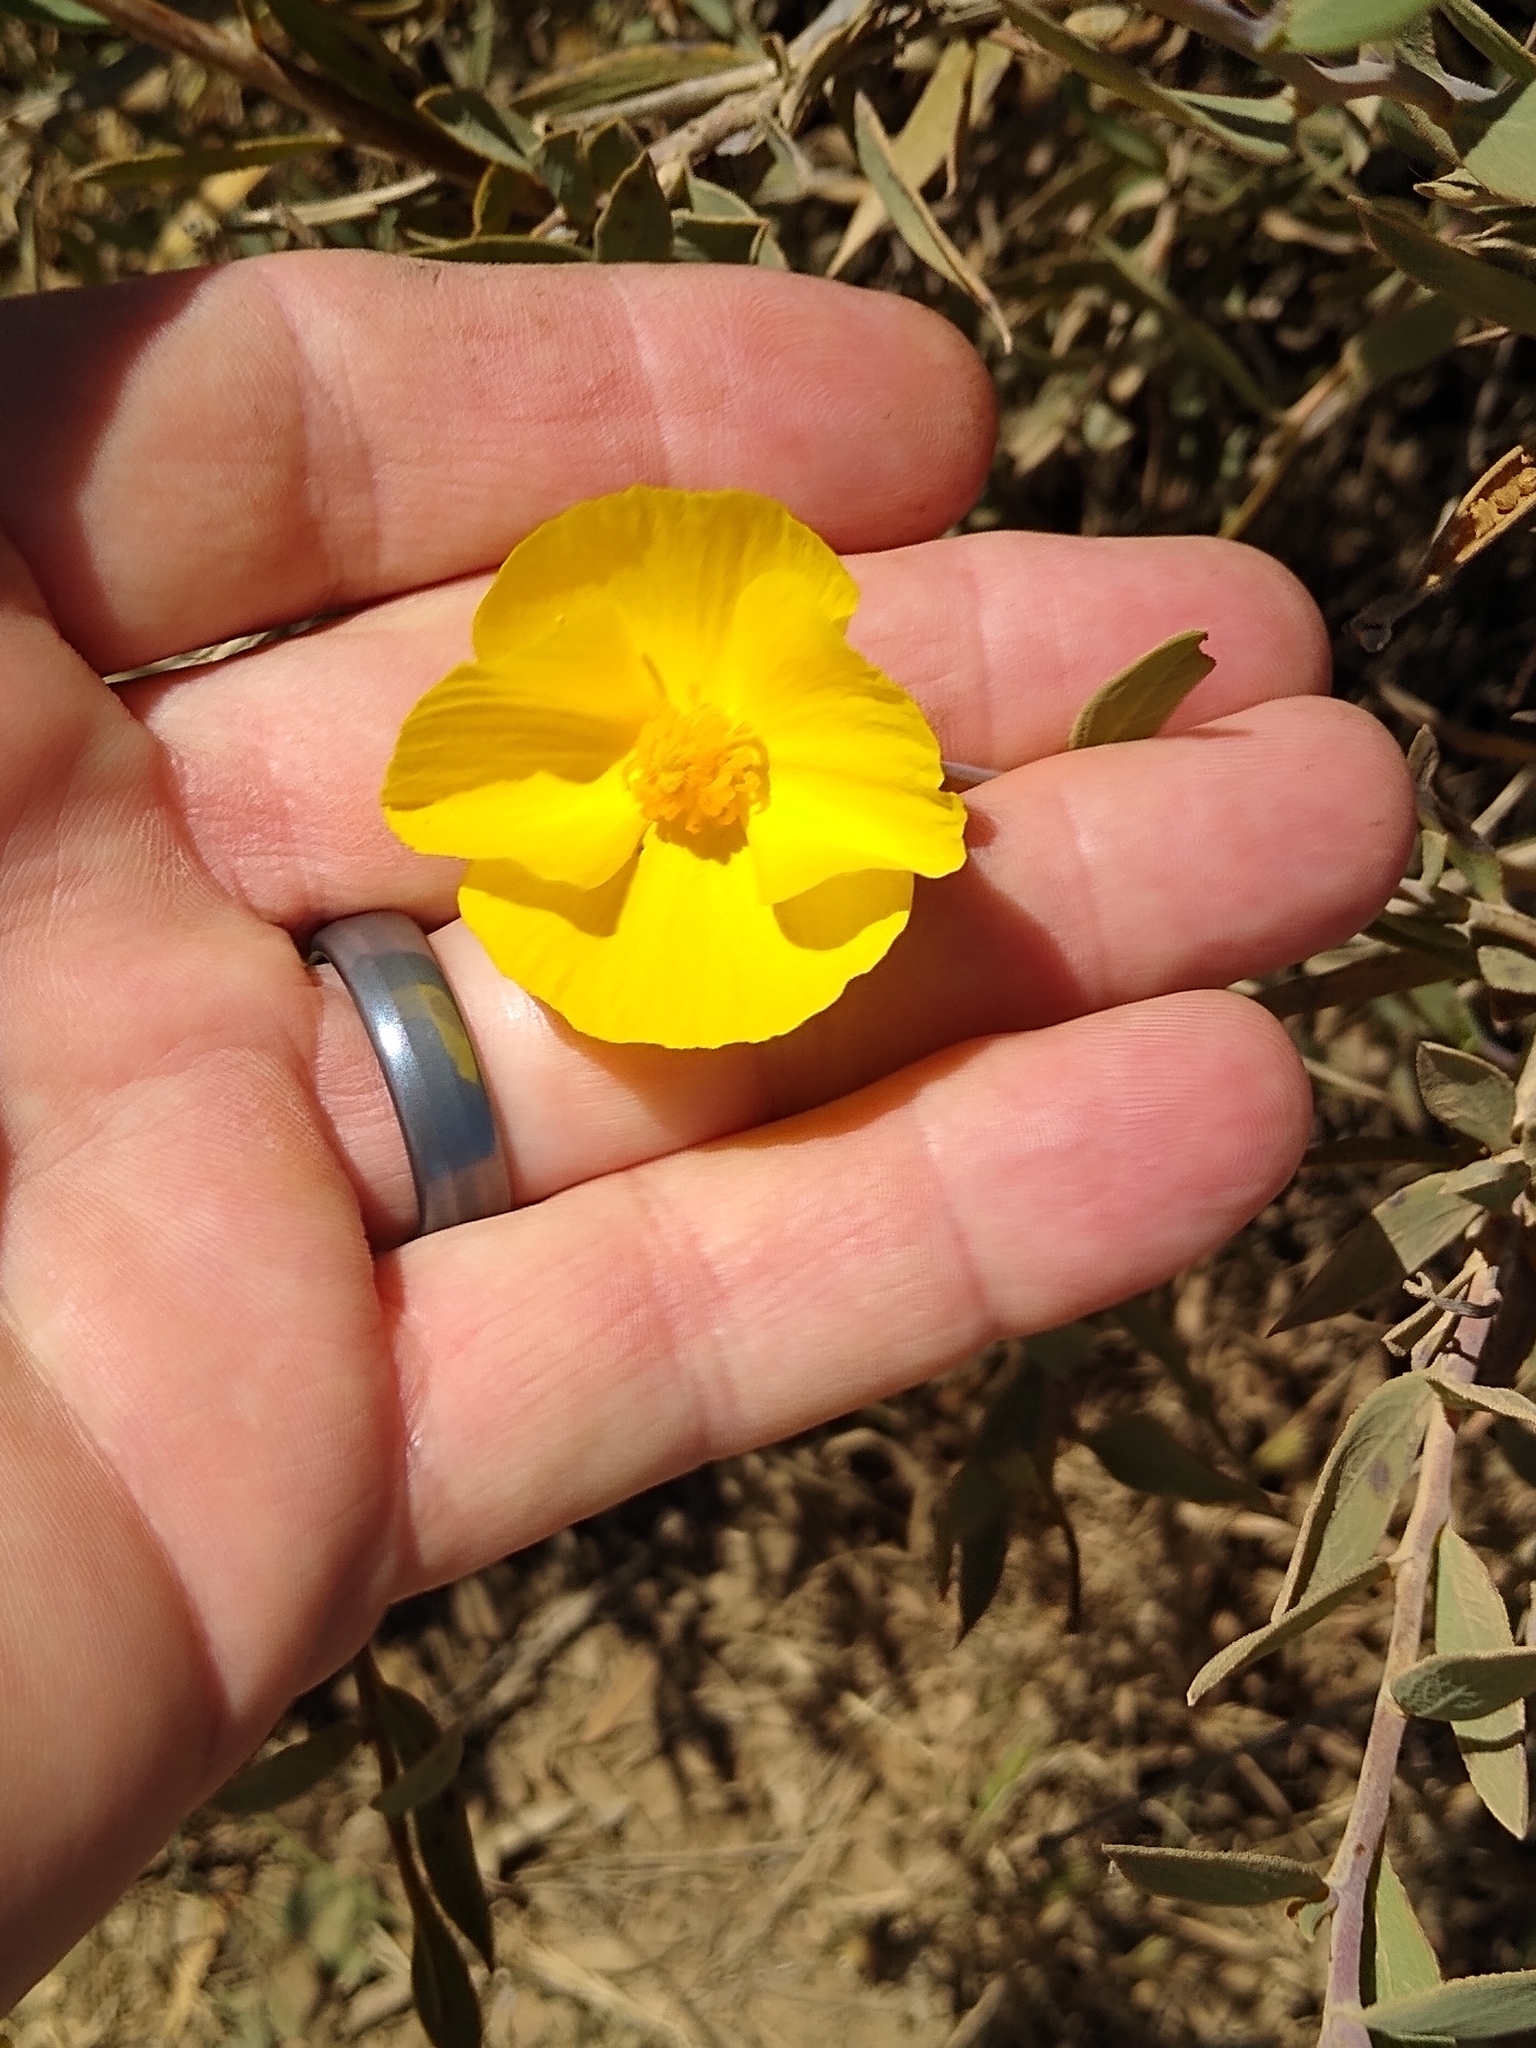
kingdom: Plantae
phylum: Tracheophyta
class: Magnoliopsida
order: Ranunculales
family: Papaveraceae
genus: Dendromecon
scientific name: Dendromecon rigida
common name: Tree poppy
